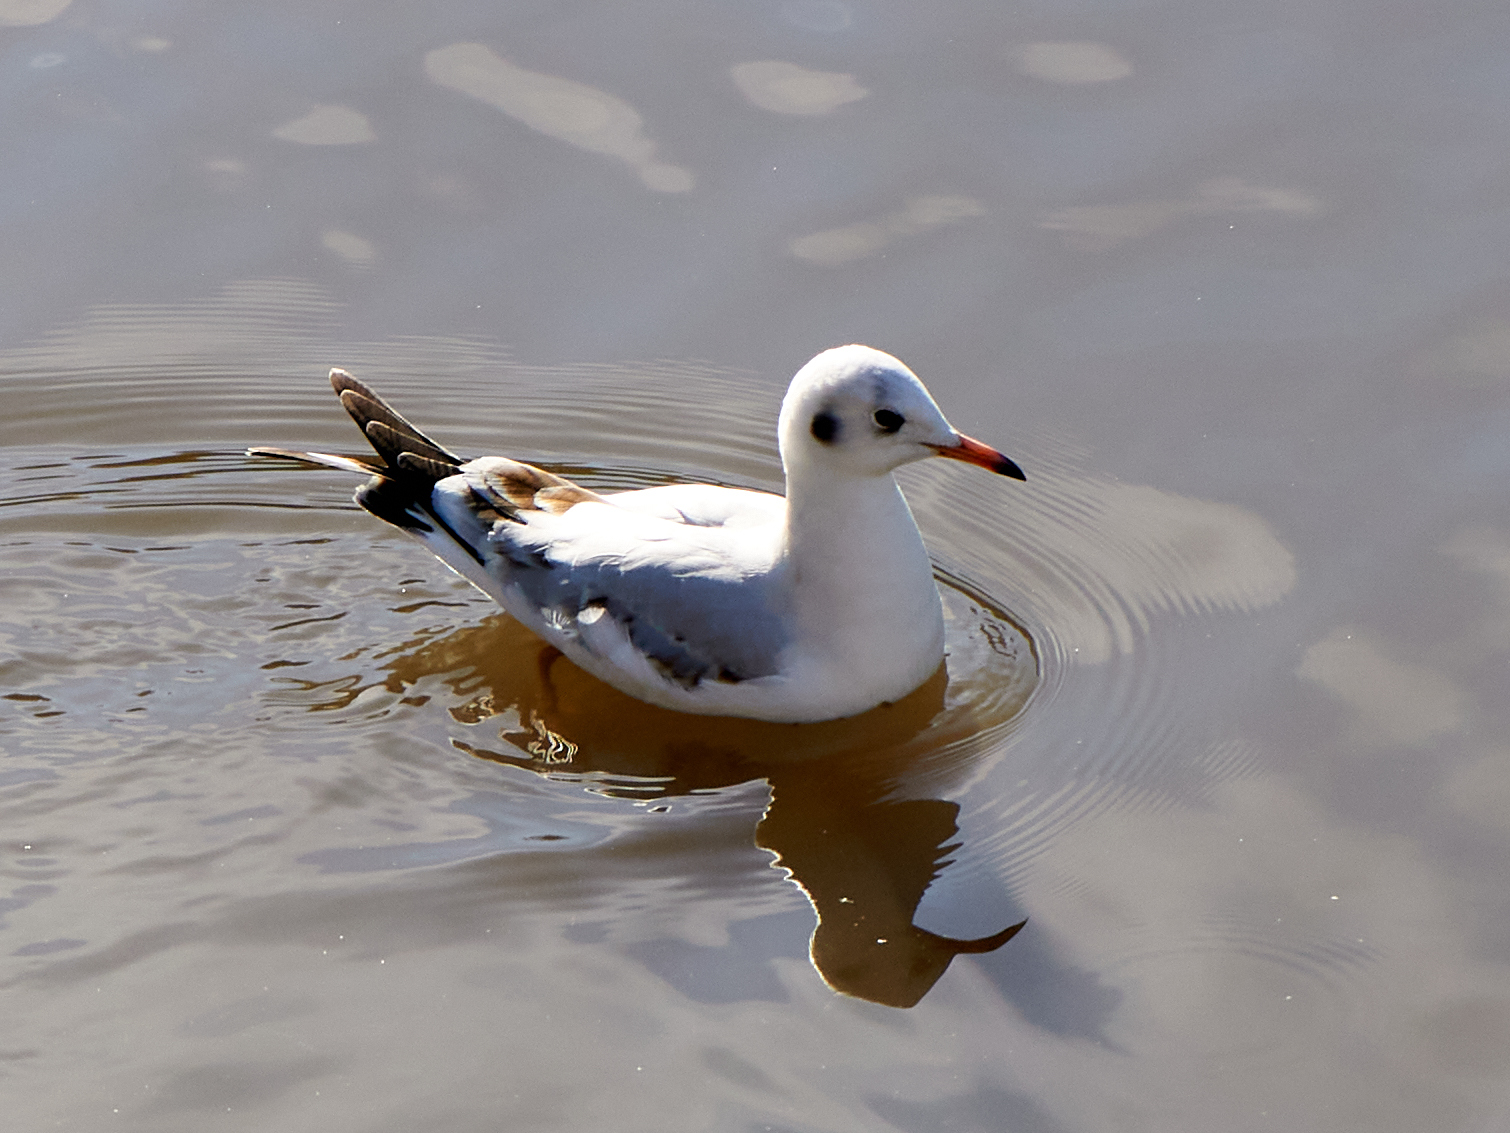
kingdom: Animalia
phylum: Chordata
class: Aves
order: Charadriiformes
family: Laridae
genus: Chroicocephalus
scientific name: Chroicocephalus ridibundus
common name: Black-headed gull
